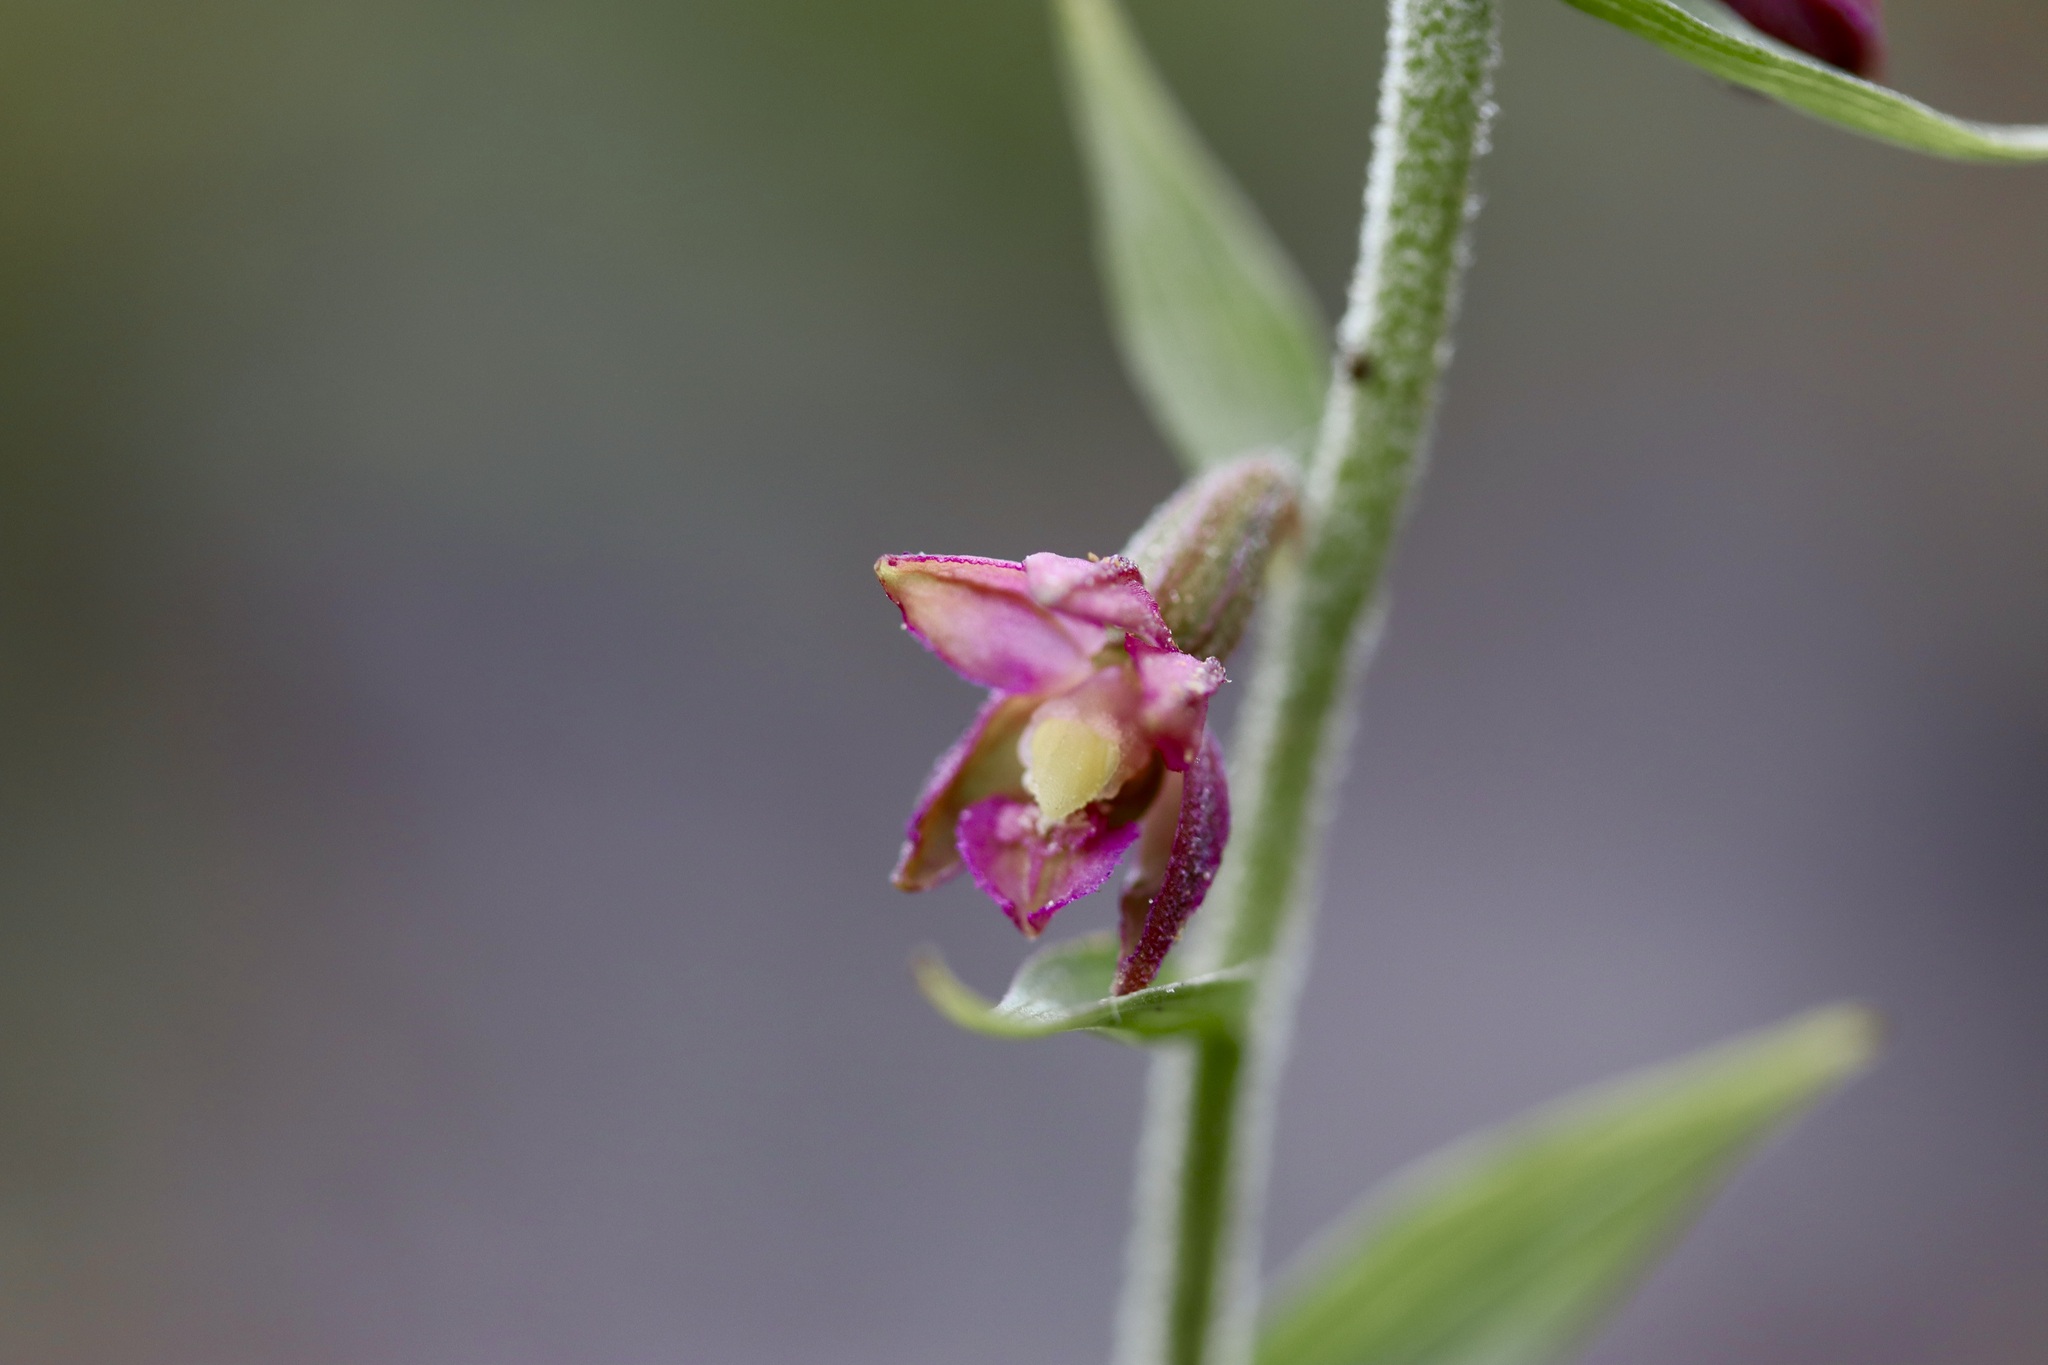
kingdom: Plantae
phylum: Tracheophyta
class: Liliopsida
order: Asparagales
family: Orchidaceae
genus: Epipactis
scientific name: Epipactis atrorubens
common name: Dark-red helleborine
